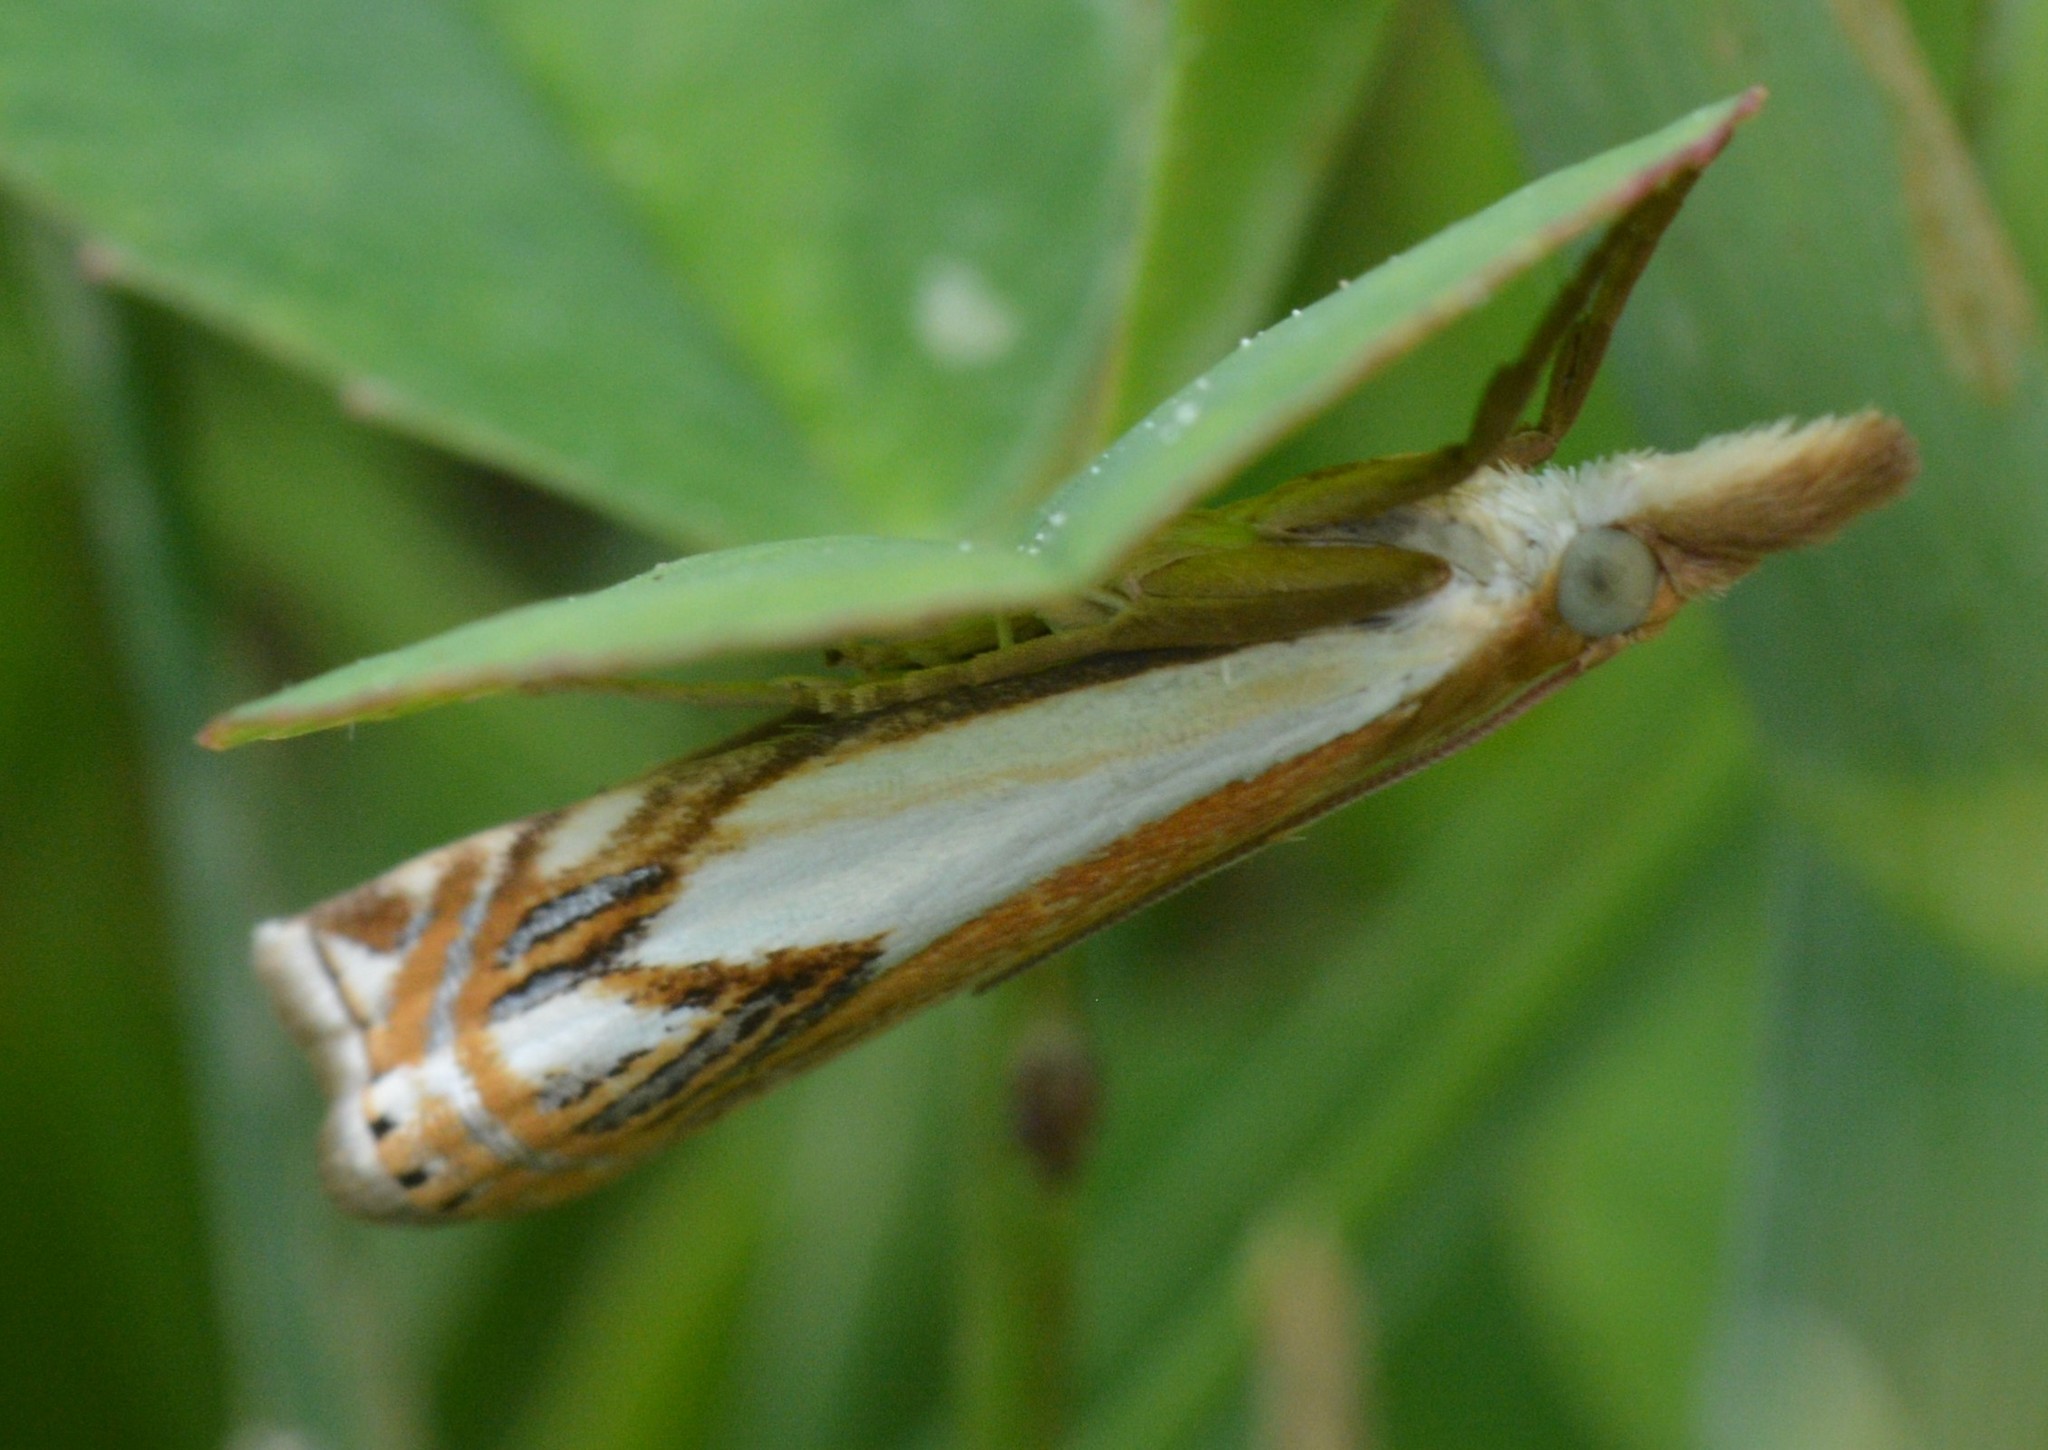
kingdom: Animalia
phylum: Arthropoda
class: Insecta
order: Lepidoptera
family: Crambidae
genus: Crambus
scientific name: Crambus agitatellus
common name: Double-banded grass-veneer
